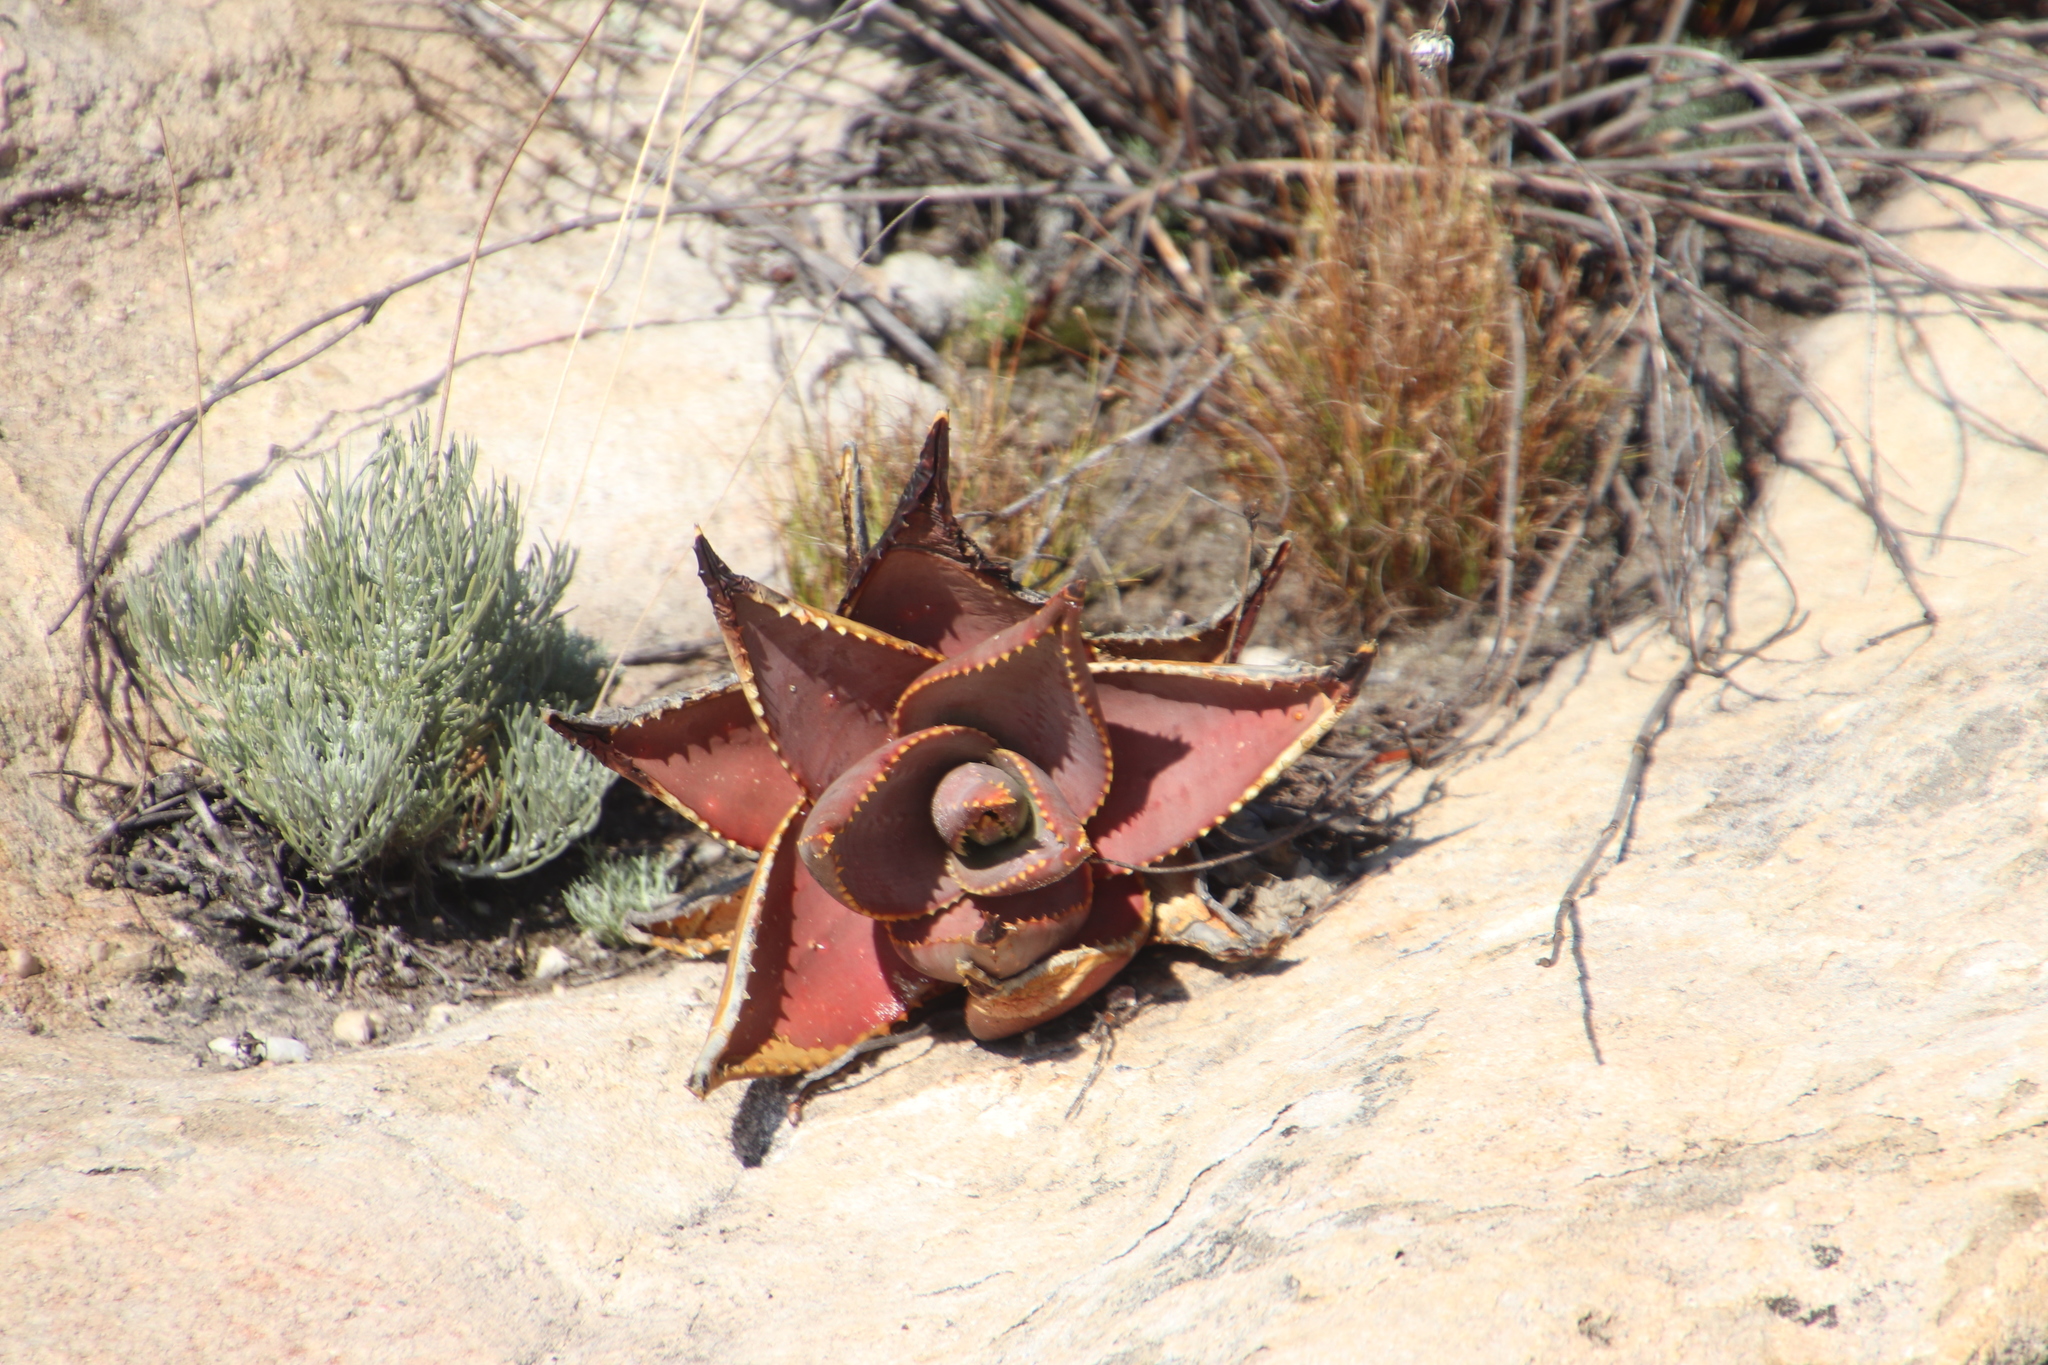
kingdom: Plantae
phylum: Tracheophyta
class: Liliopsida
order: Asparagales
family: Asphodelaceae
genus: Aloe
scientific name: Aloe perfoliata
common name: Mitra aloe
